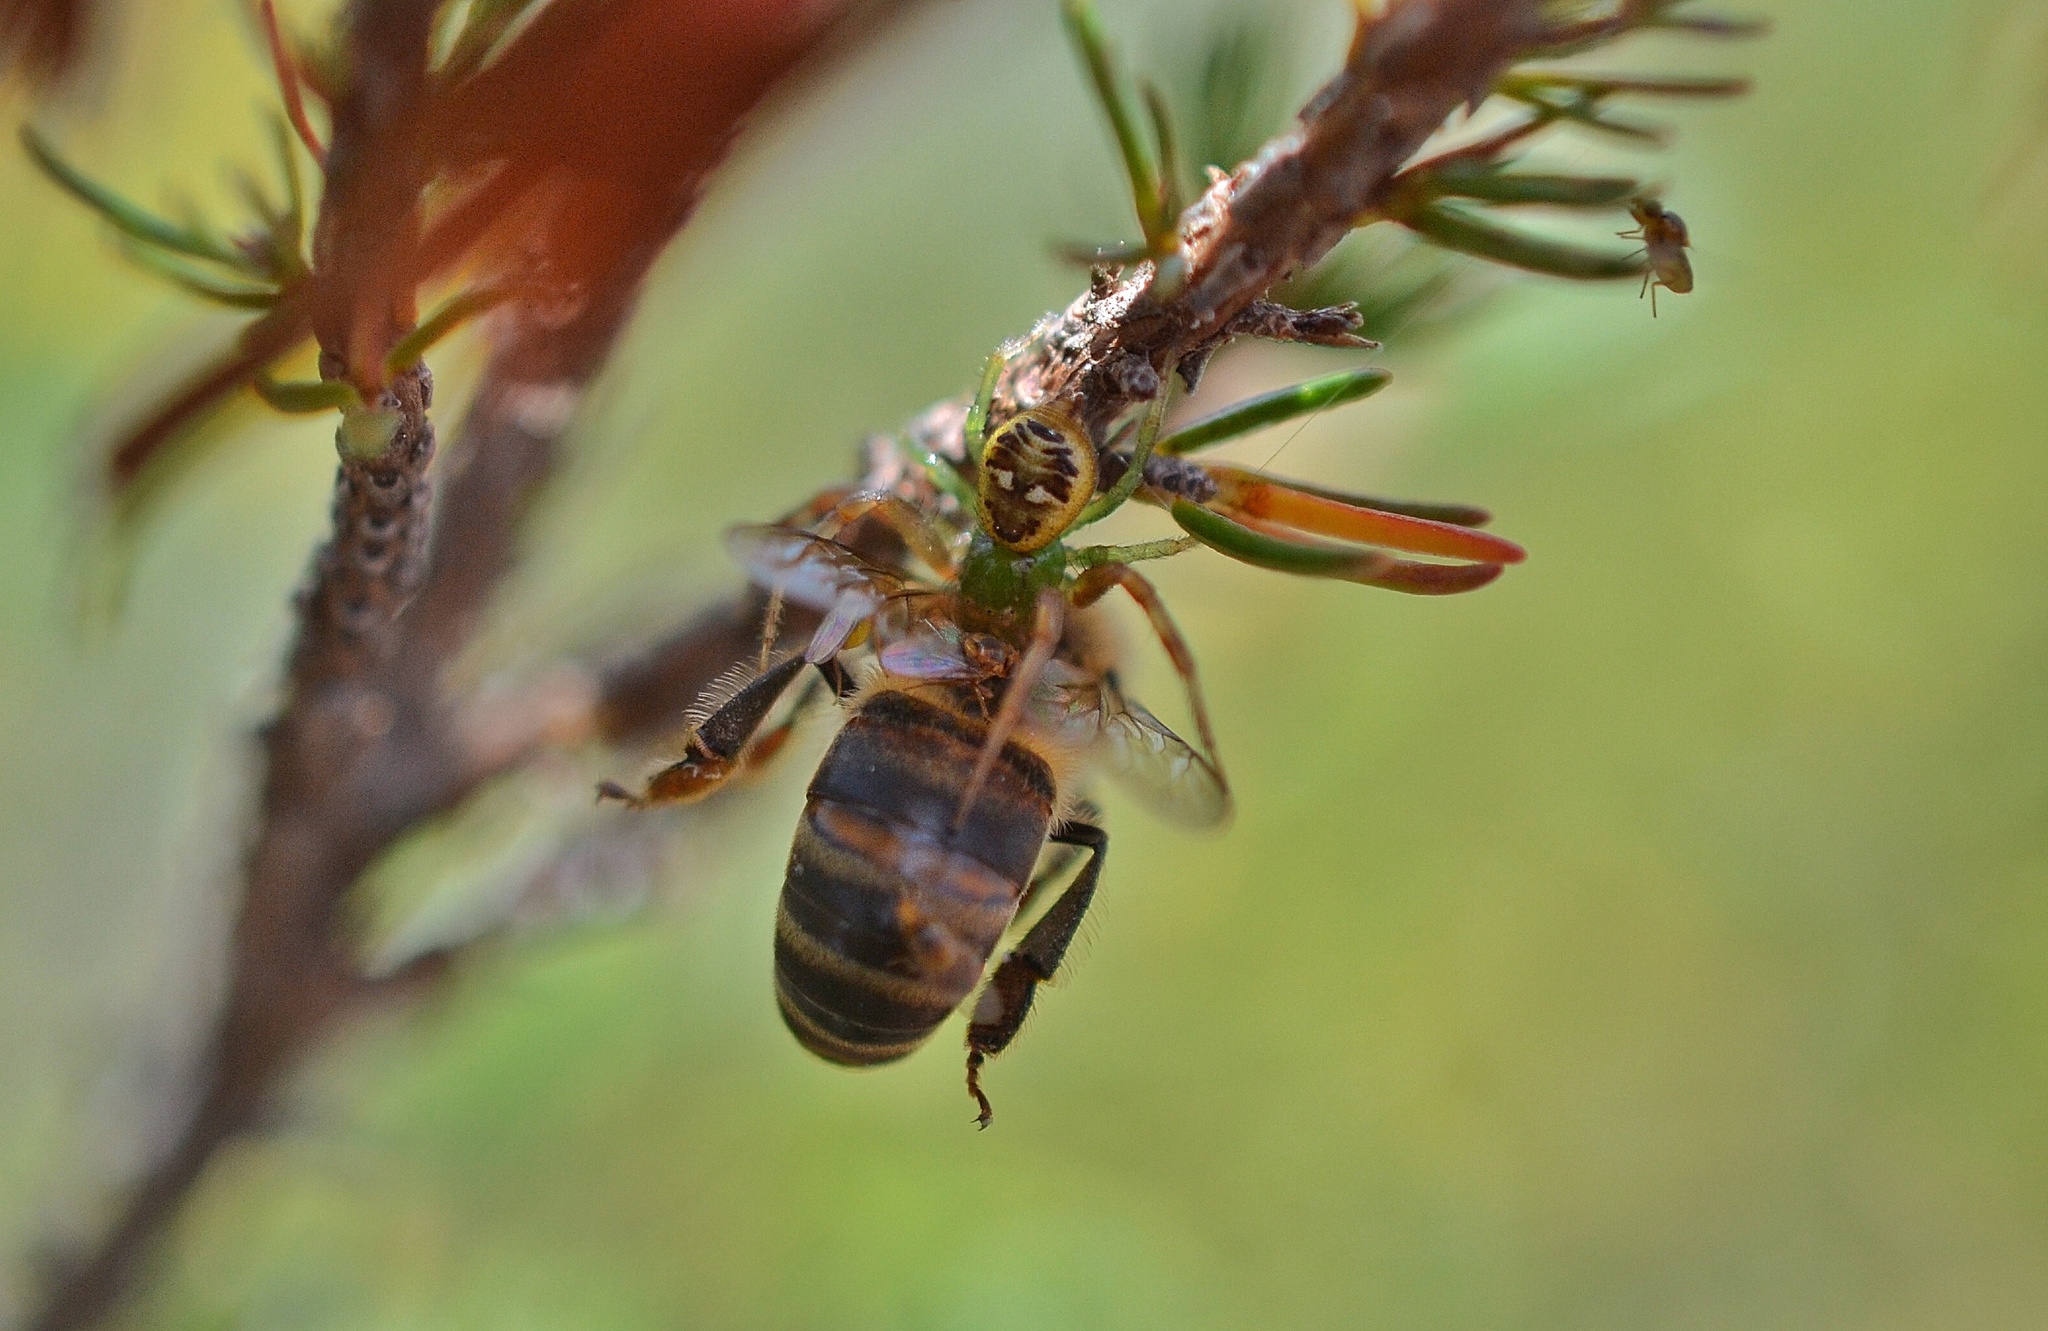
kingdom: Animalia
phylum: Arthropoda
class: Arachnida
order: Araneae
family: Thomisidae
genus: Synema
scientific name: Synema imitatrix
